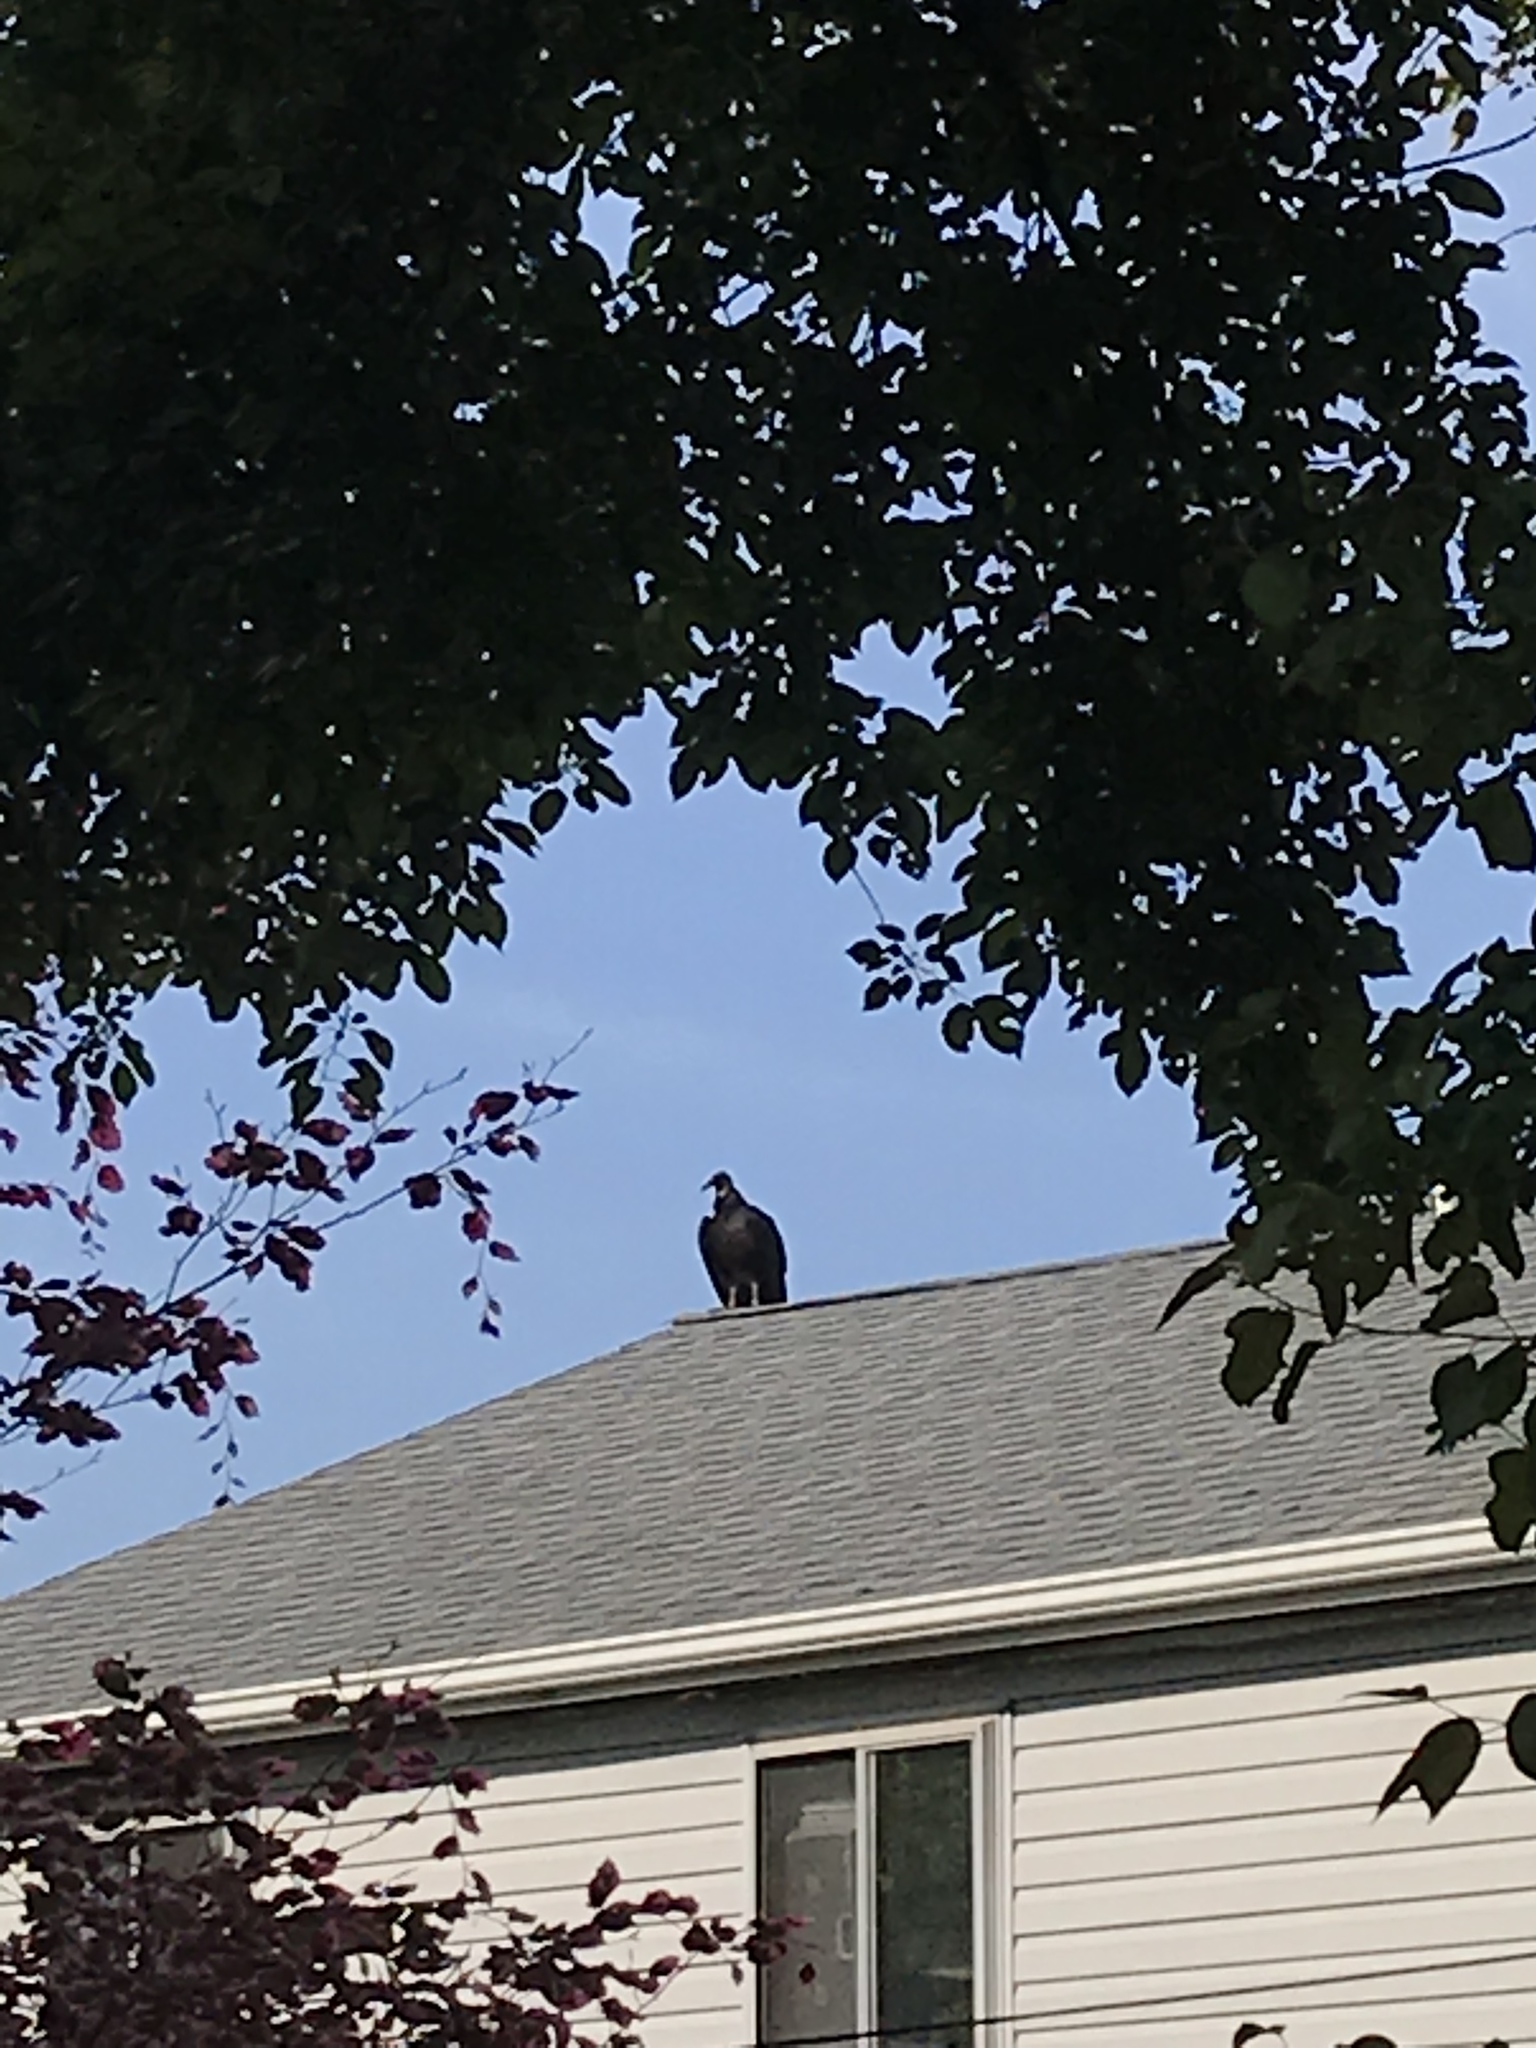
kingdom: Animalia
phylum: Chordata
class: Aves
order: Accipitriformes
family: Cathartidae
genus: Coragyps
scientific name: Coragyps atratus
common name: Black vulture
